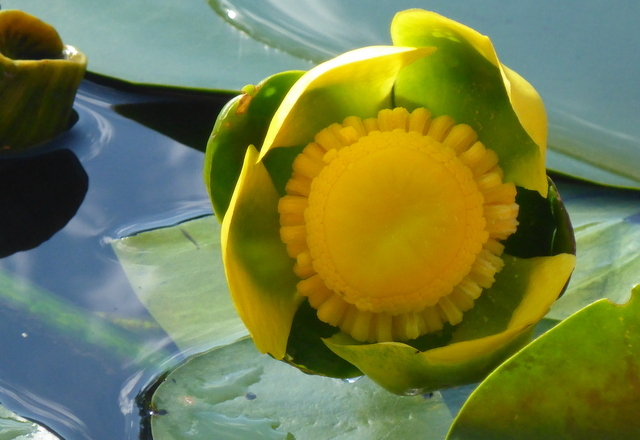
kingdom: Plantae
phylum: Tracheophyta
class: Magnoliopsida
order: Nymphaeales
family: Nymphaeaceae
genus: Nuphar
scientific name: Nuphar advena
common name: Spatter-dock
